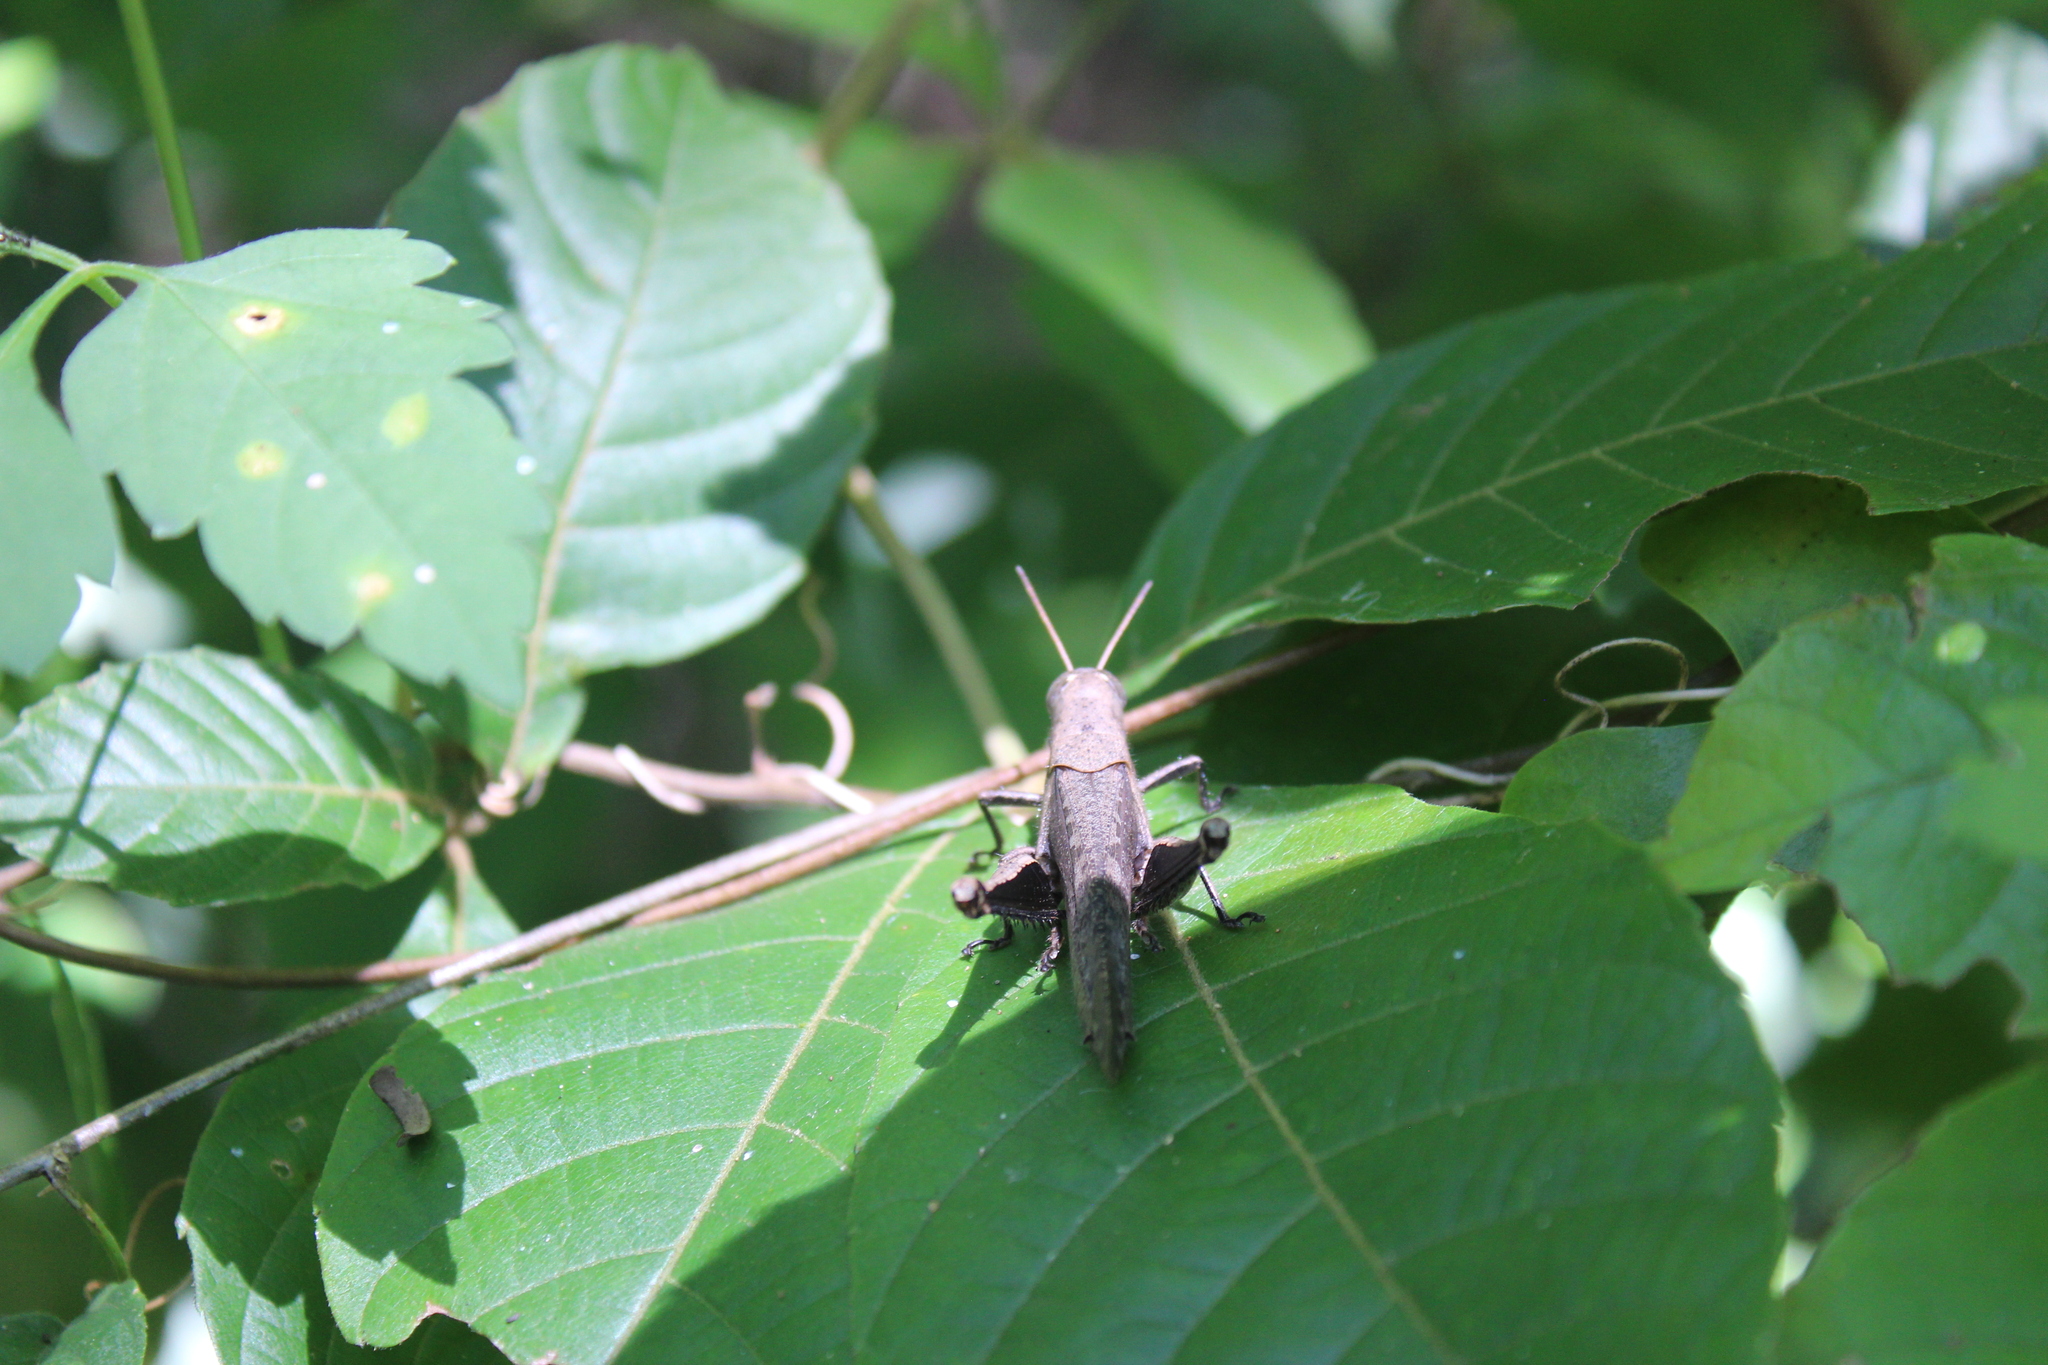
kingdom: Animalia
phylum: Arthropoda
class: Insecta
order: Orthoptera
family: Acrididae
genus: Abracris
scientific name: Abracris flavolineata
